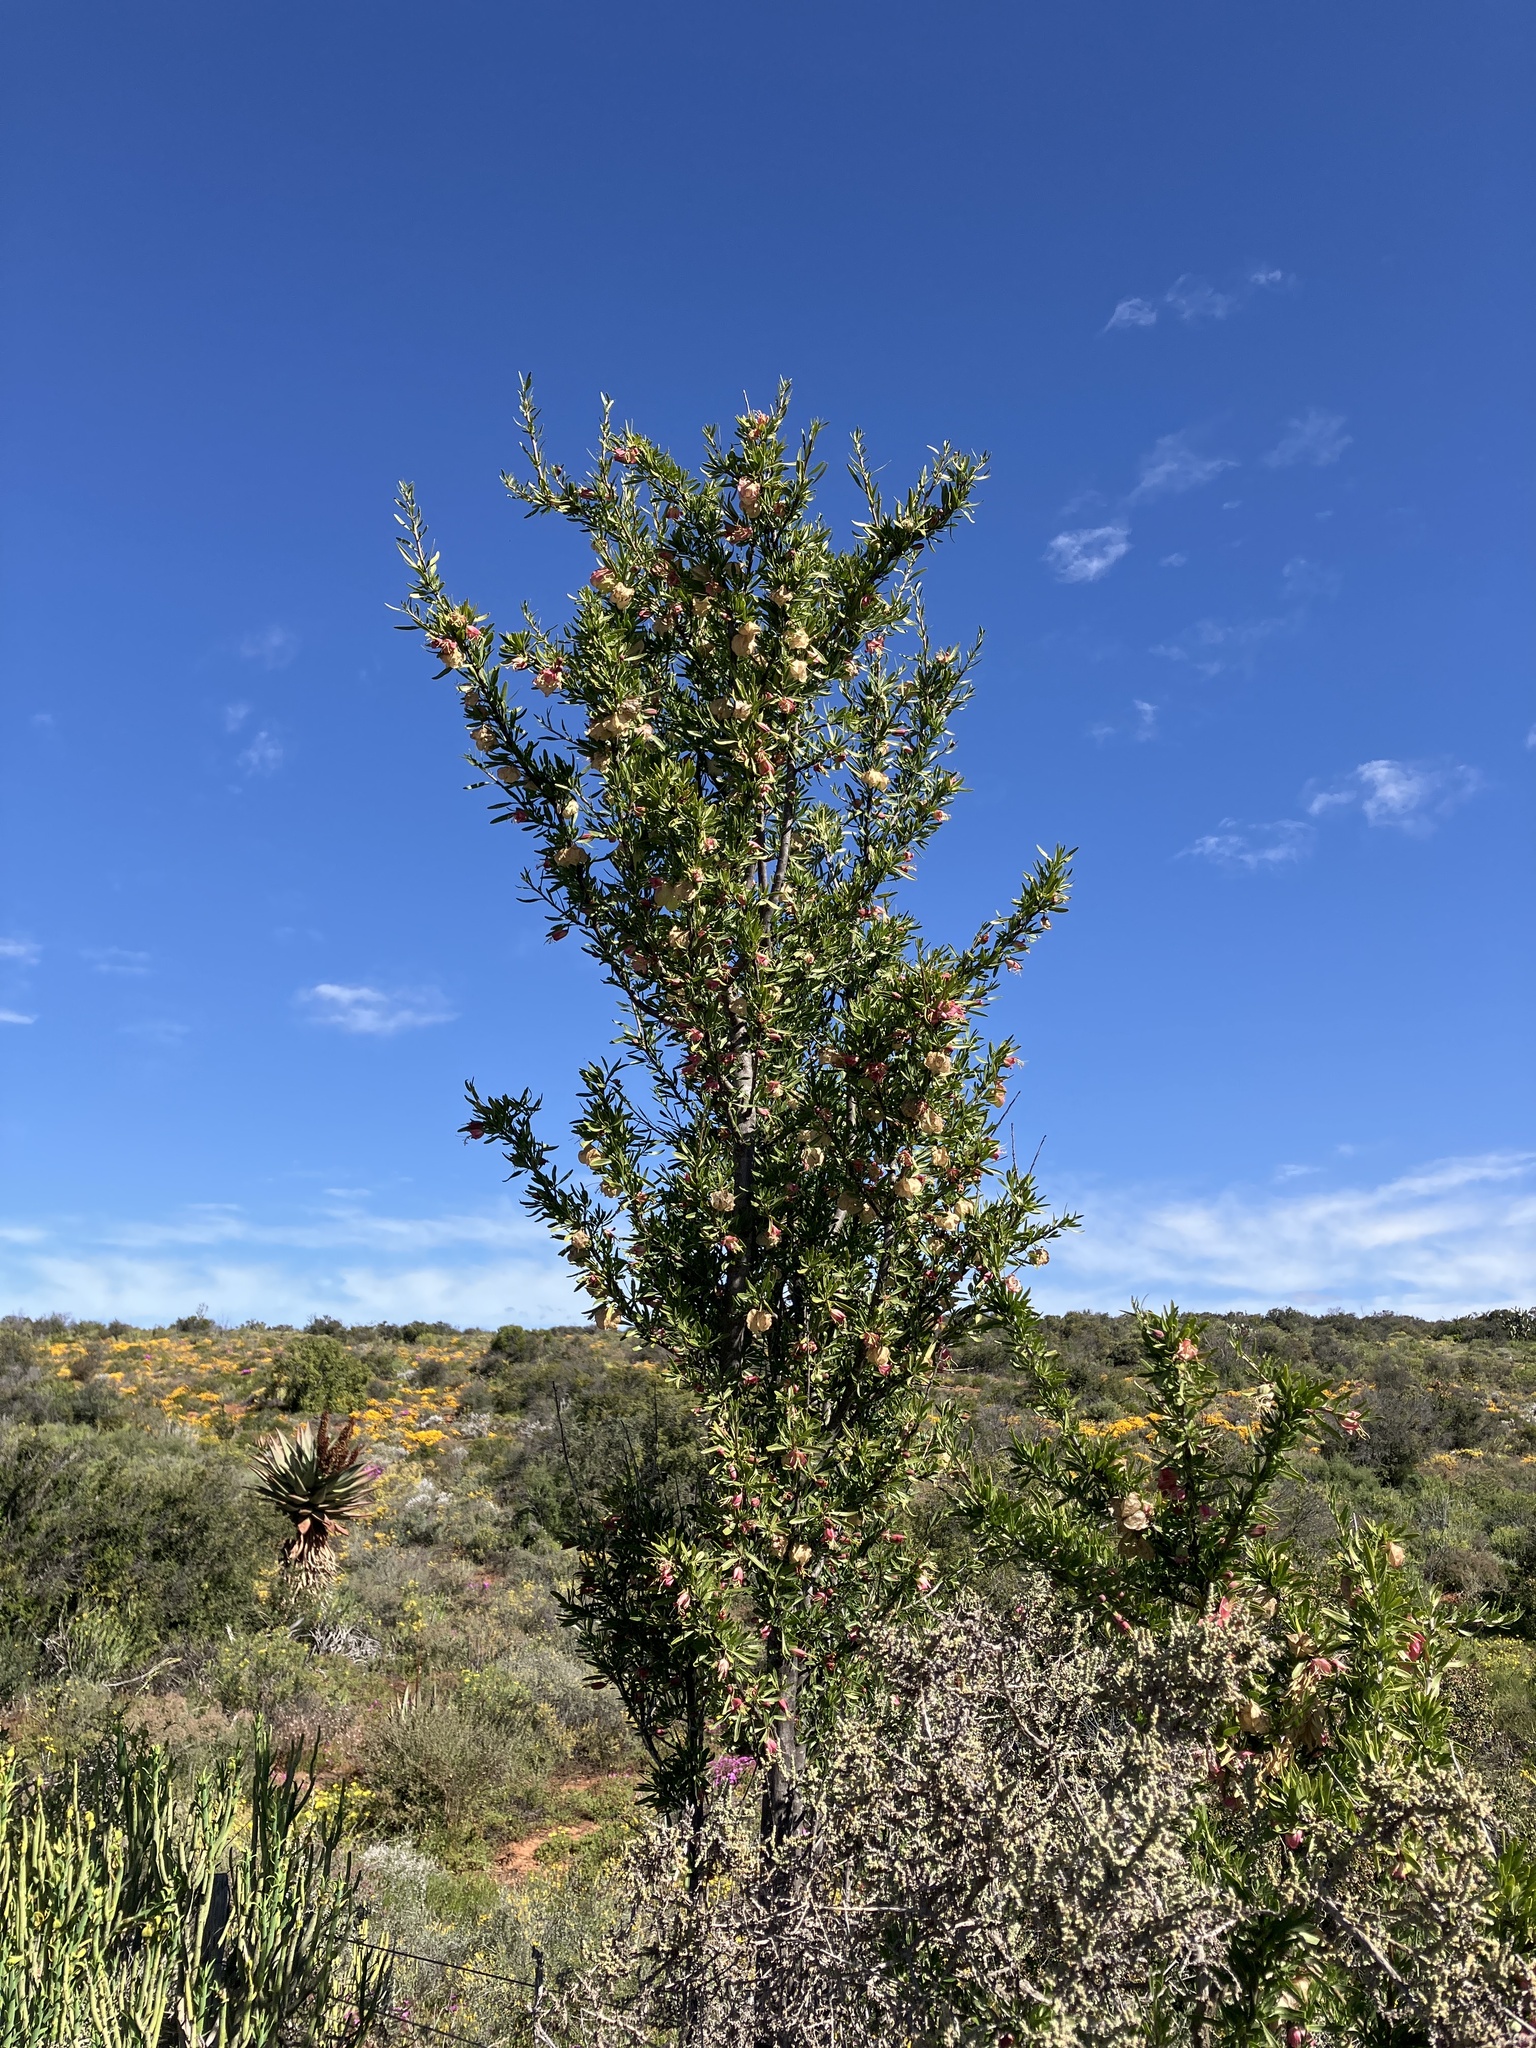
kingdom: Plantae
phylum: Tracheophyta
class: Magnoliopsida
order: Sapindales
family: Meliaceae
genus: Nymania
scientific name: Nymania capensis
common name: Chinese lantern tree
